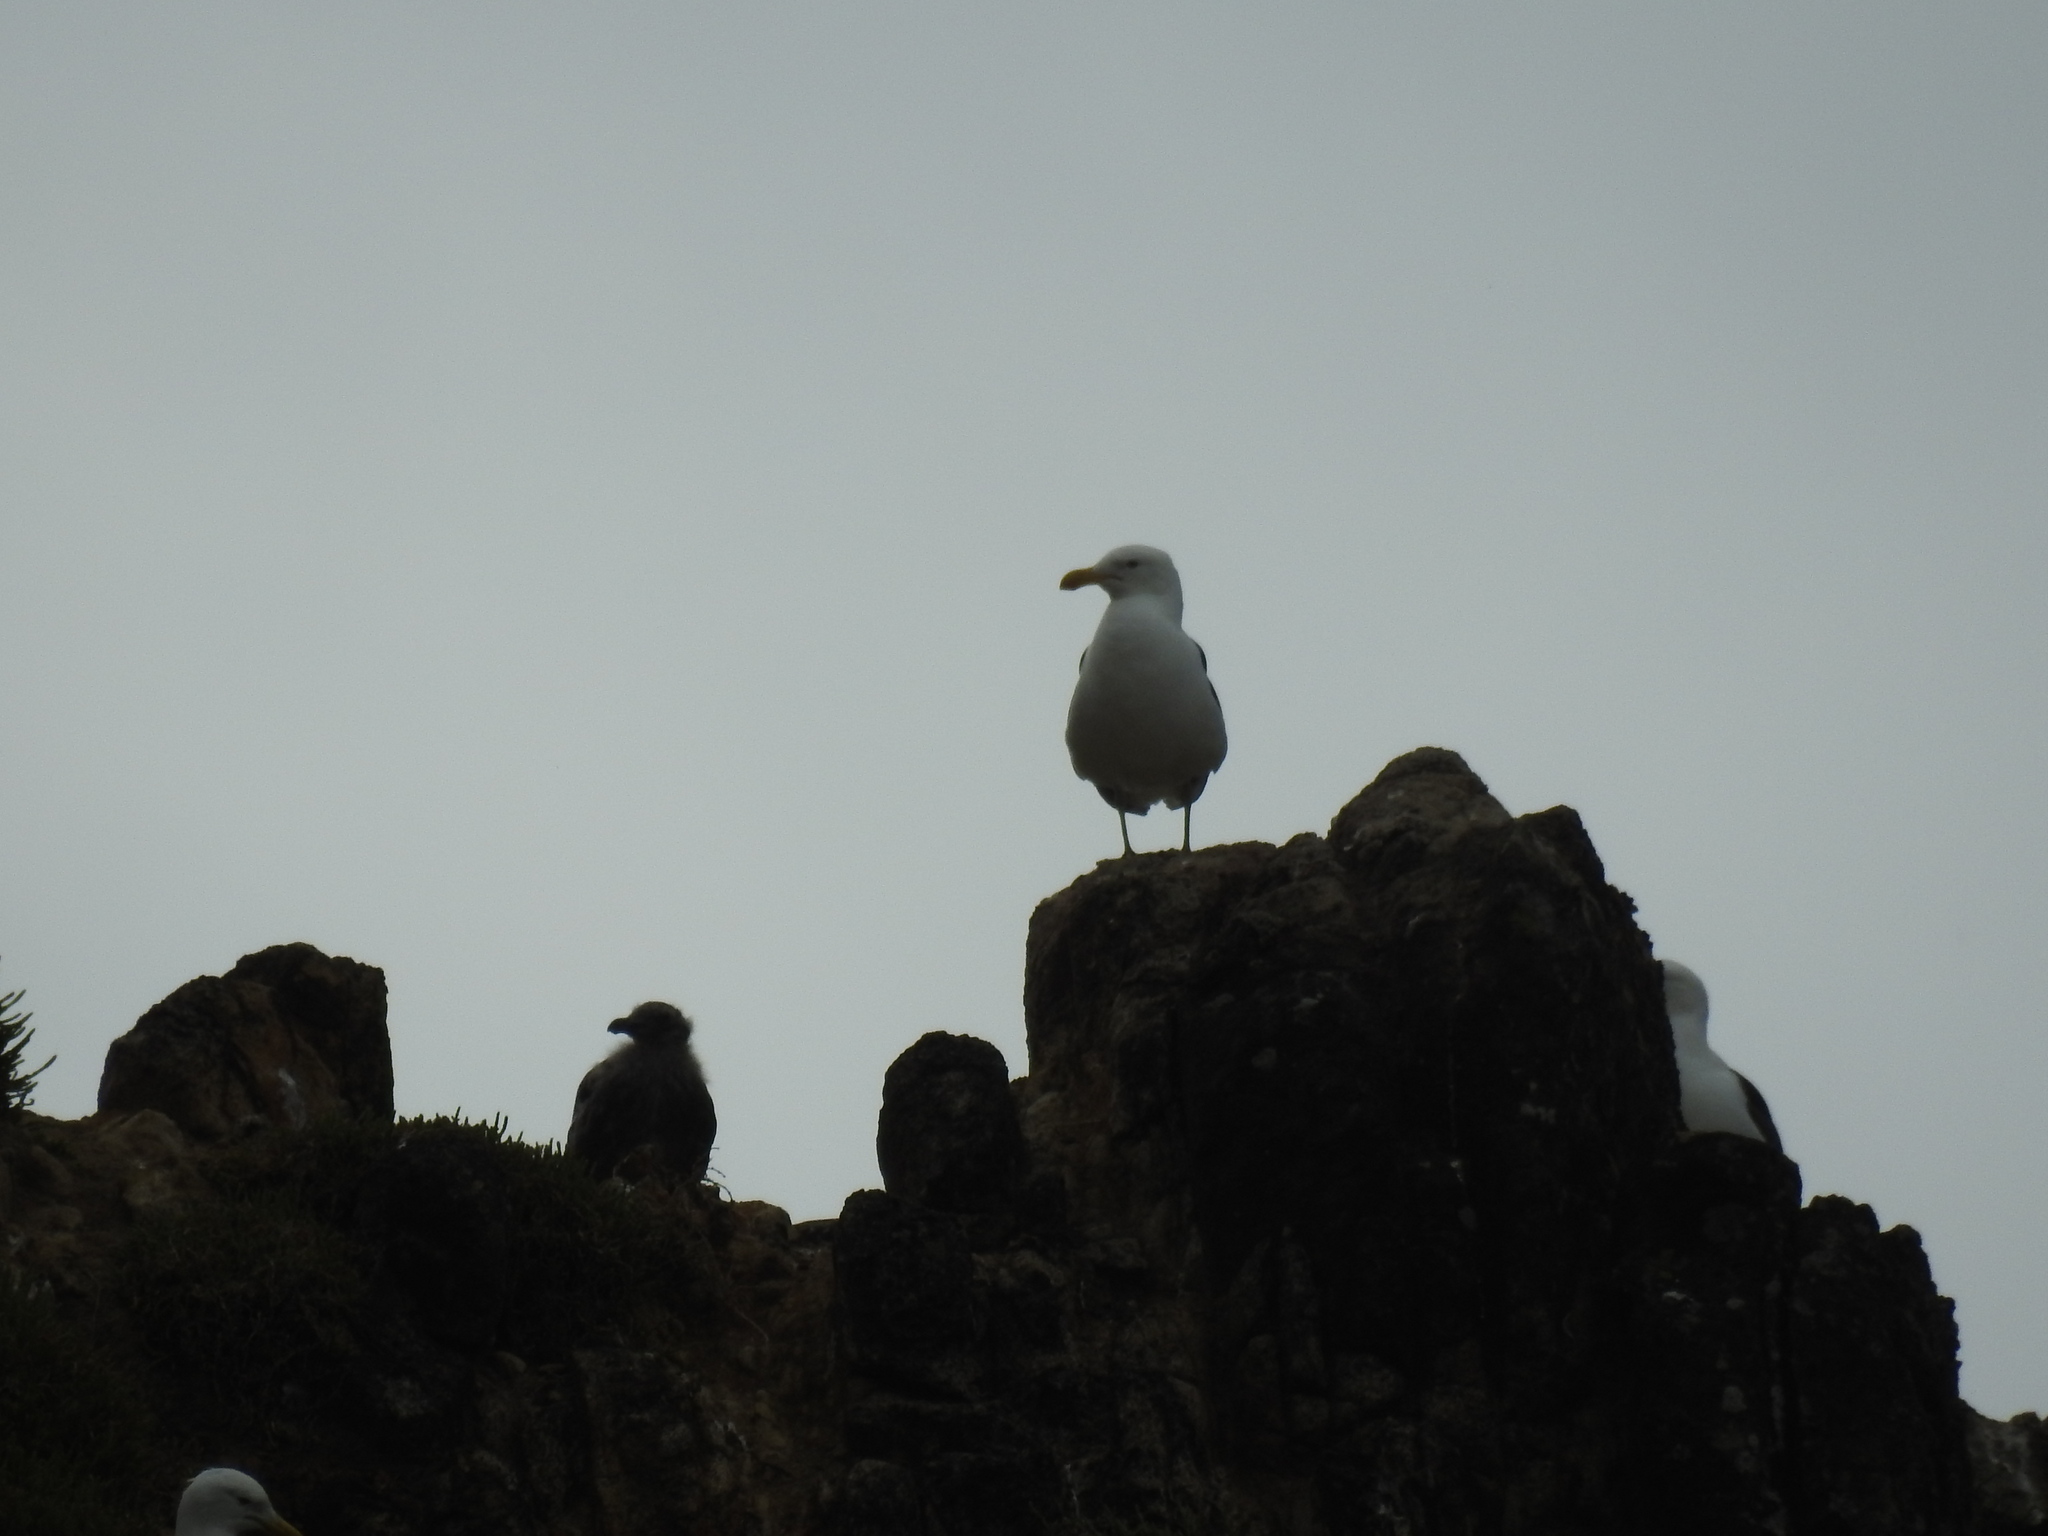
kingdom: Animalia
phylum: Chordata
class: Aves
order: Charadriiformes
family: Laridae
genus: Larus
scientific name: Larus dominicanus
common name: Kelp gull
